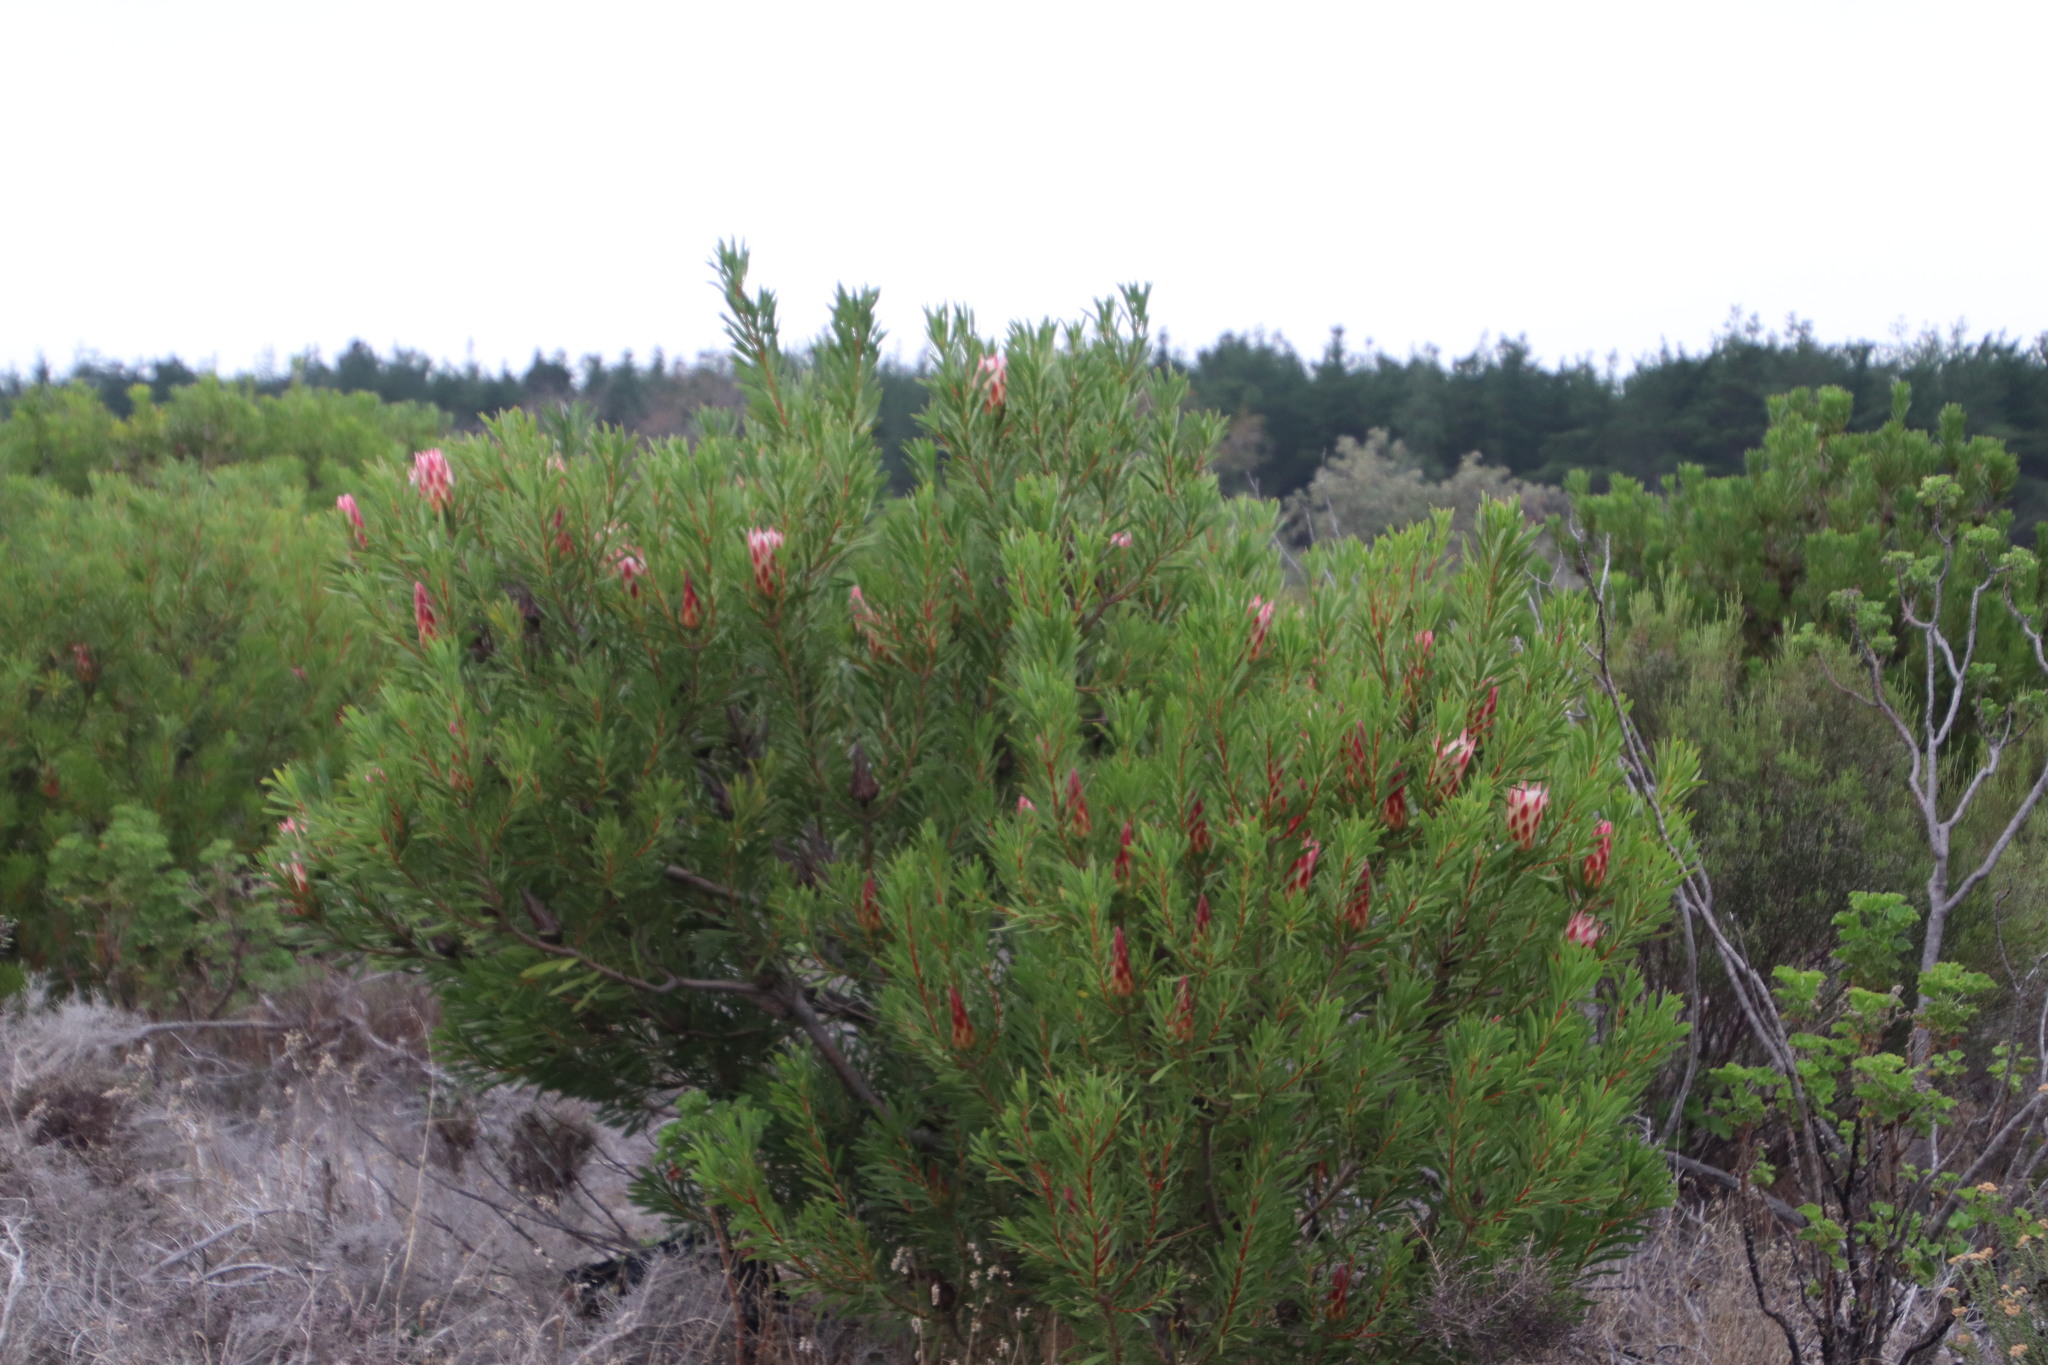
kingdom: Plantae
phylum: Tracheophyta
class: Magnoliopsida
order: Proteales
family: Proteaceae
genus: Protea
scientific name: Protea repens
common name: Sugarbush
